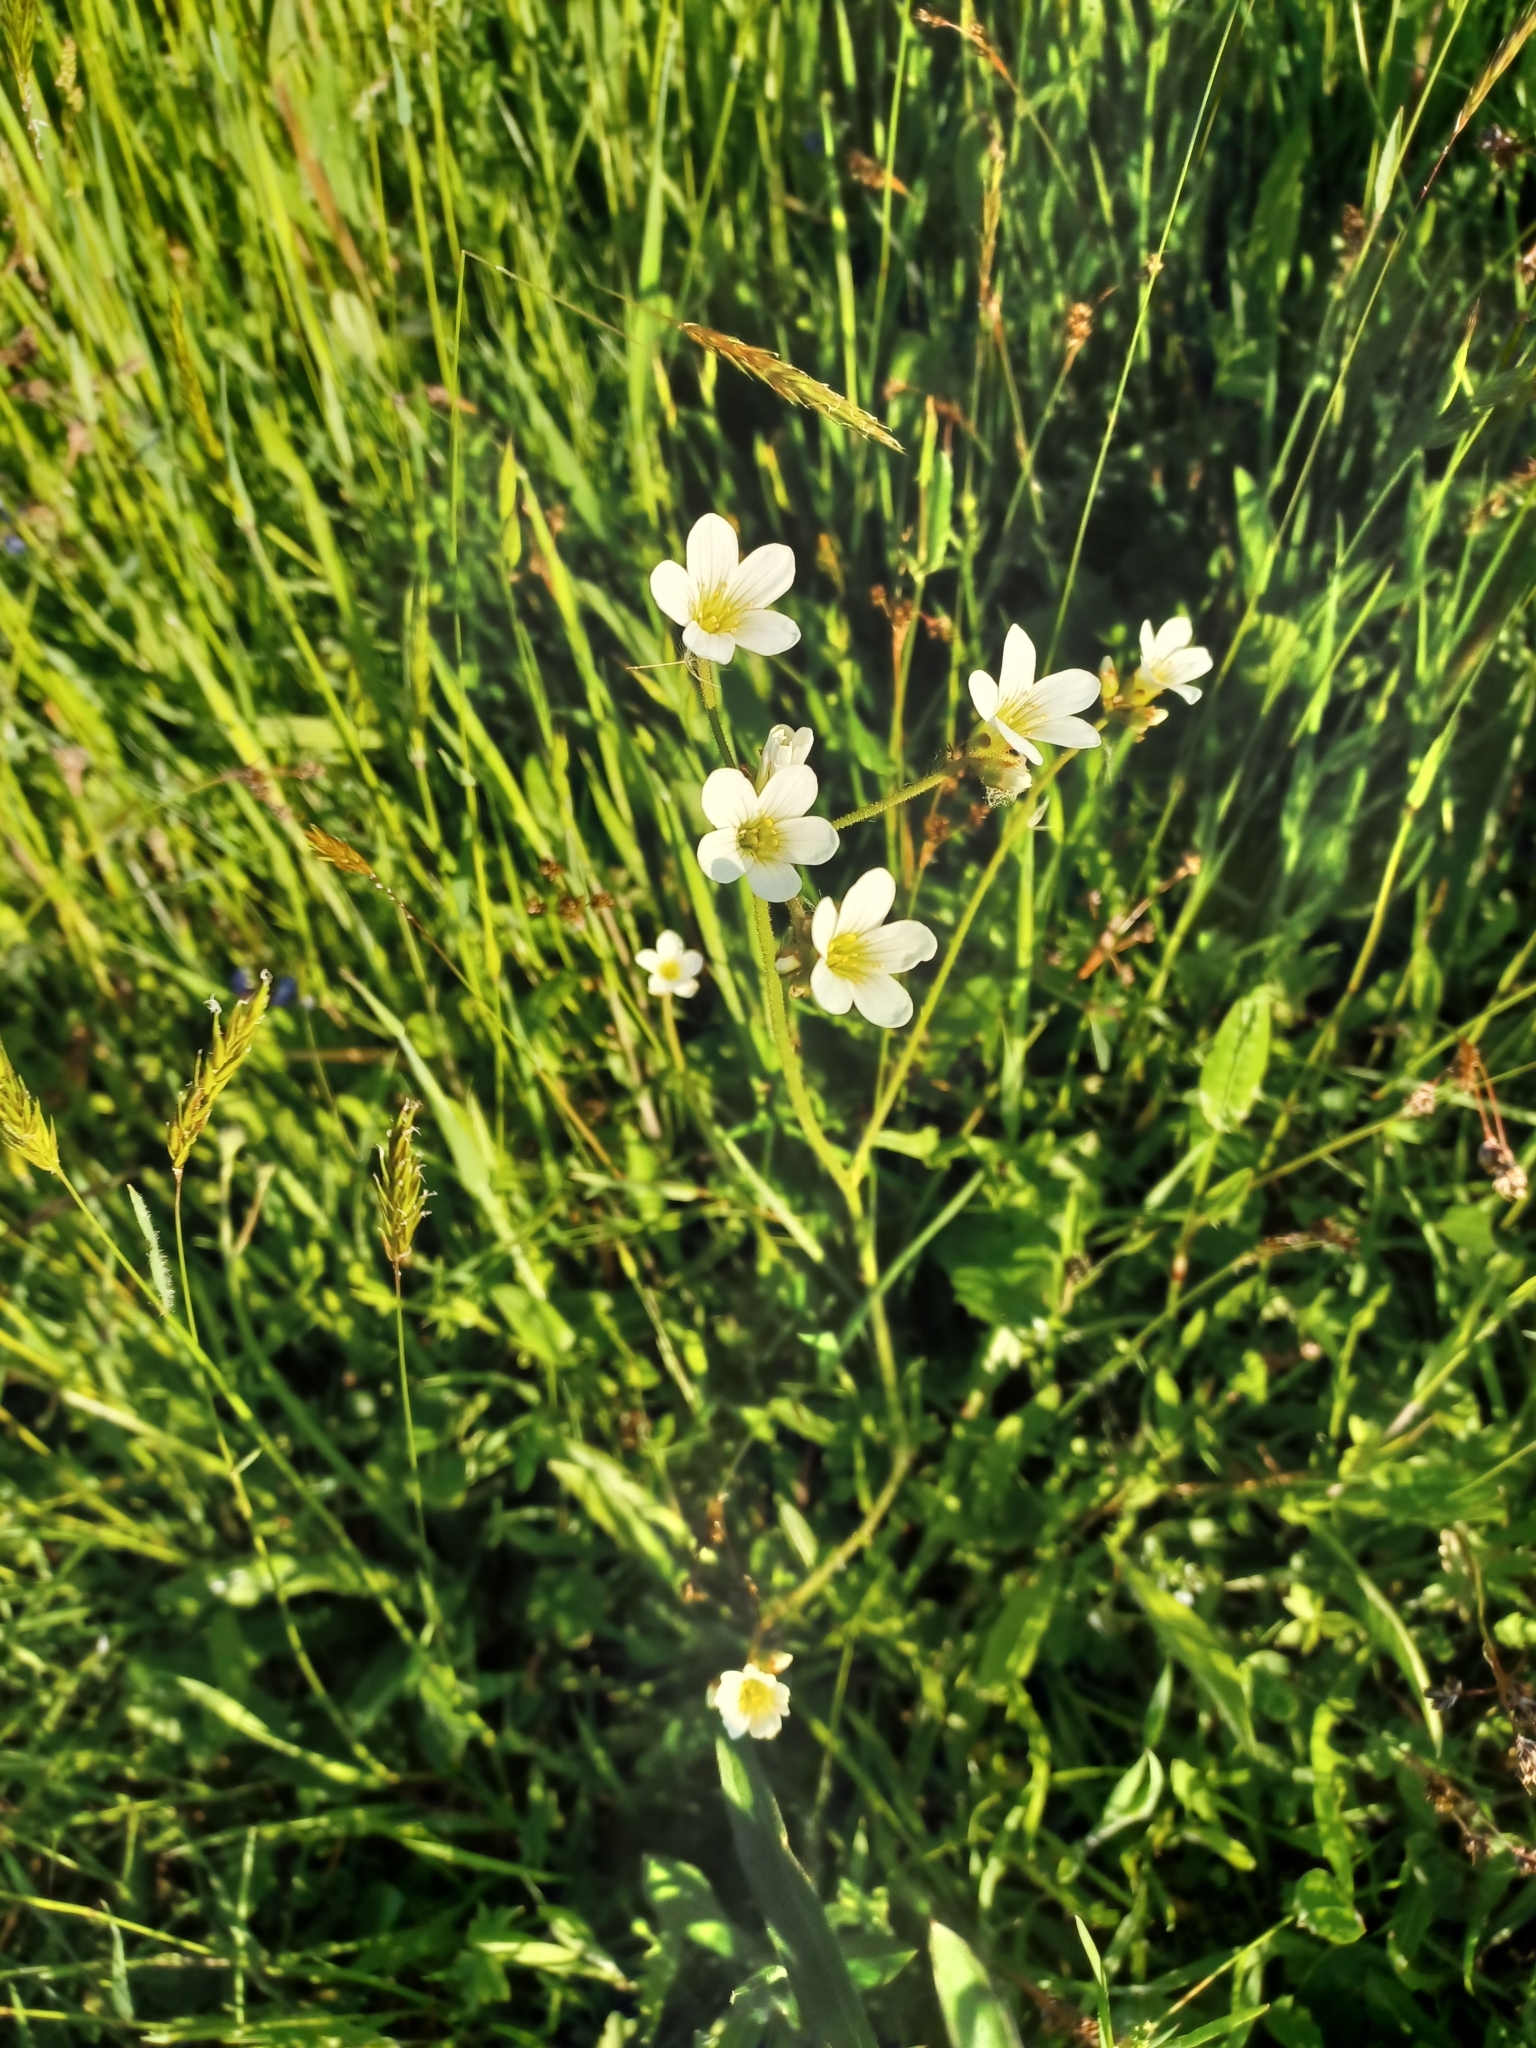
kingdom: Plantae
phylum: Tracheophyta
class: Magnoliopsida
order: Saxifragales
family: Saxifragaceae
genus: Saxifraga
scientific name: Saxifraga granulata
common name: Meadow saxifrage
